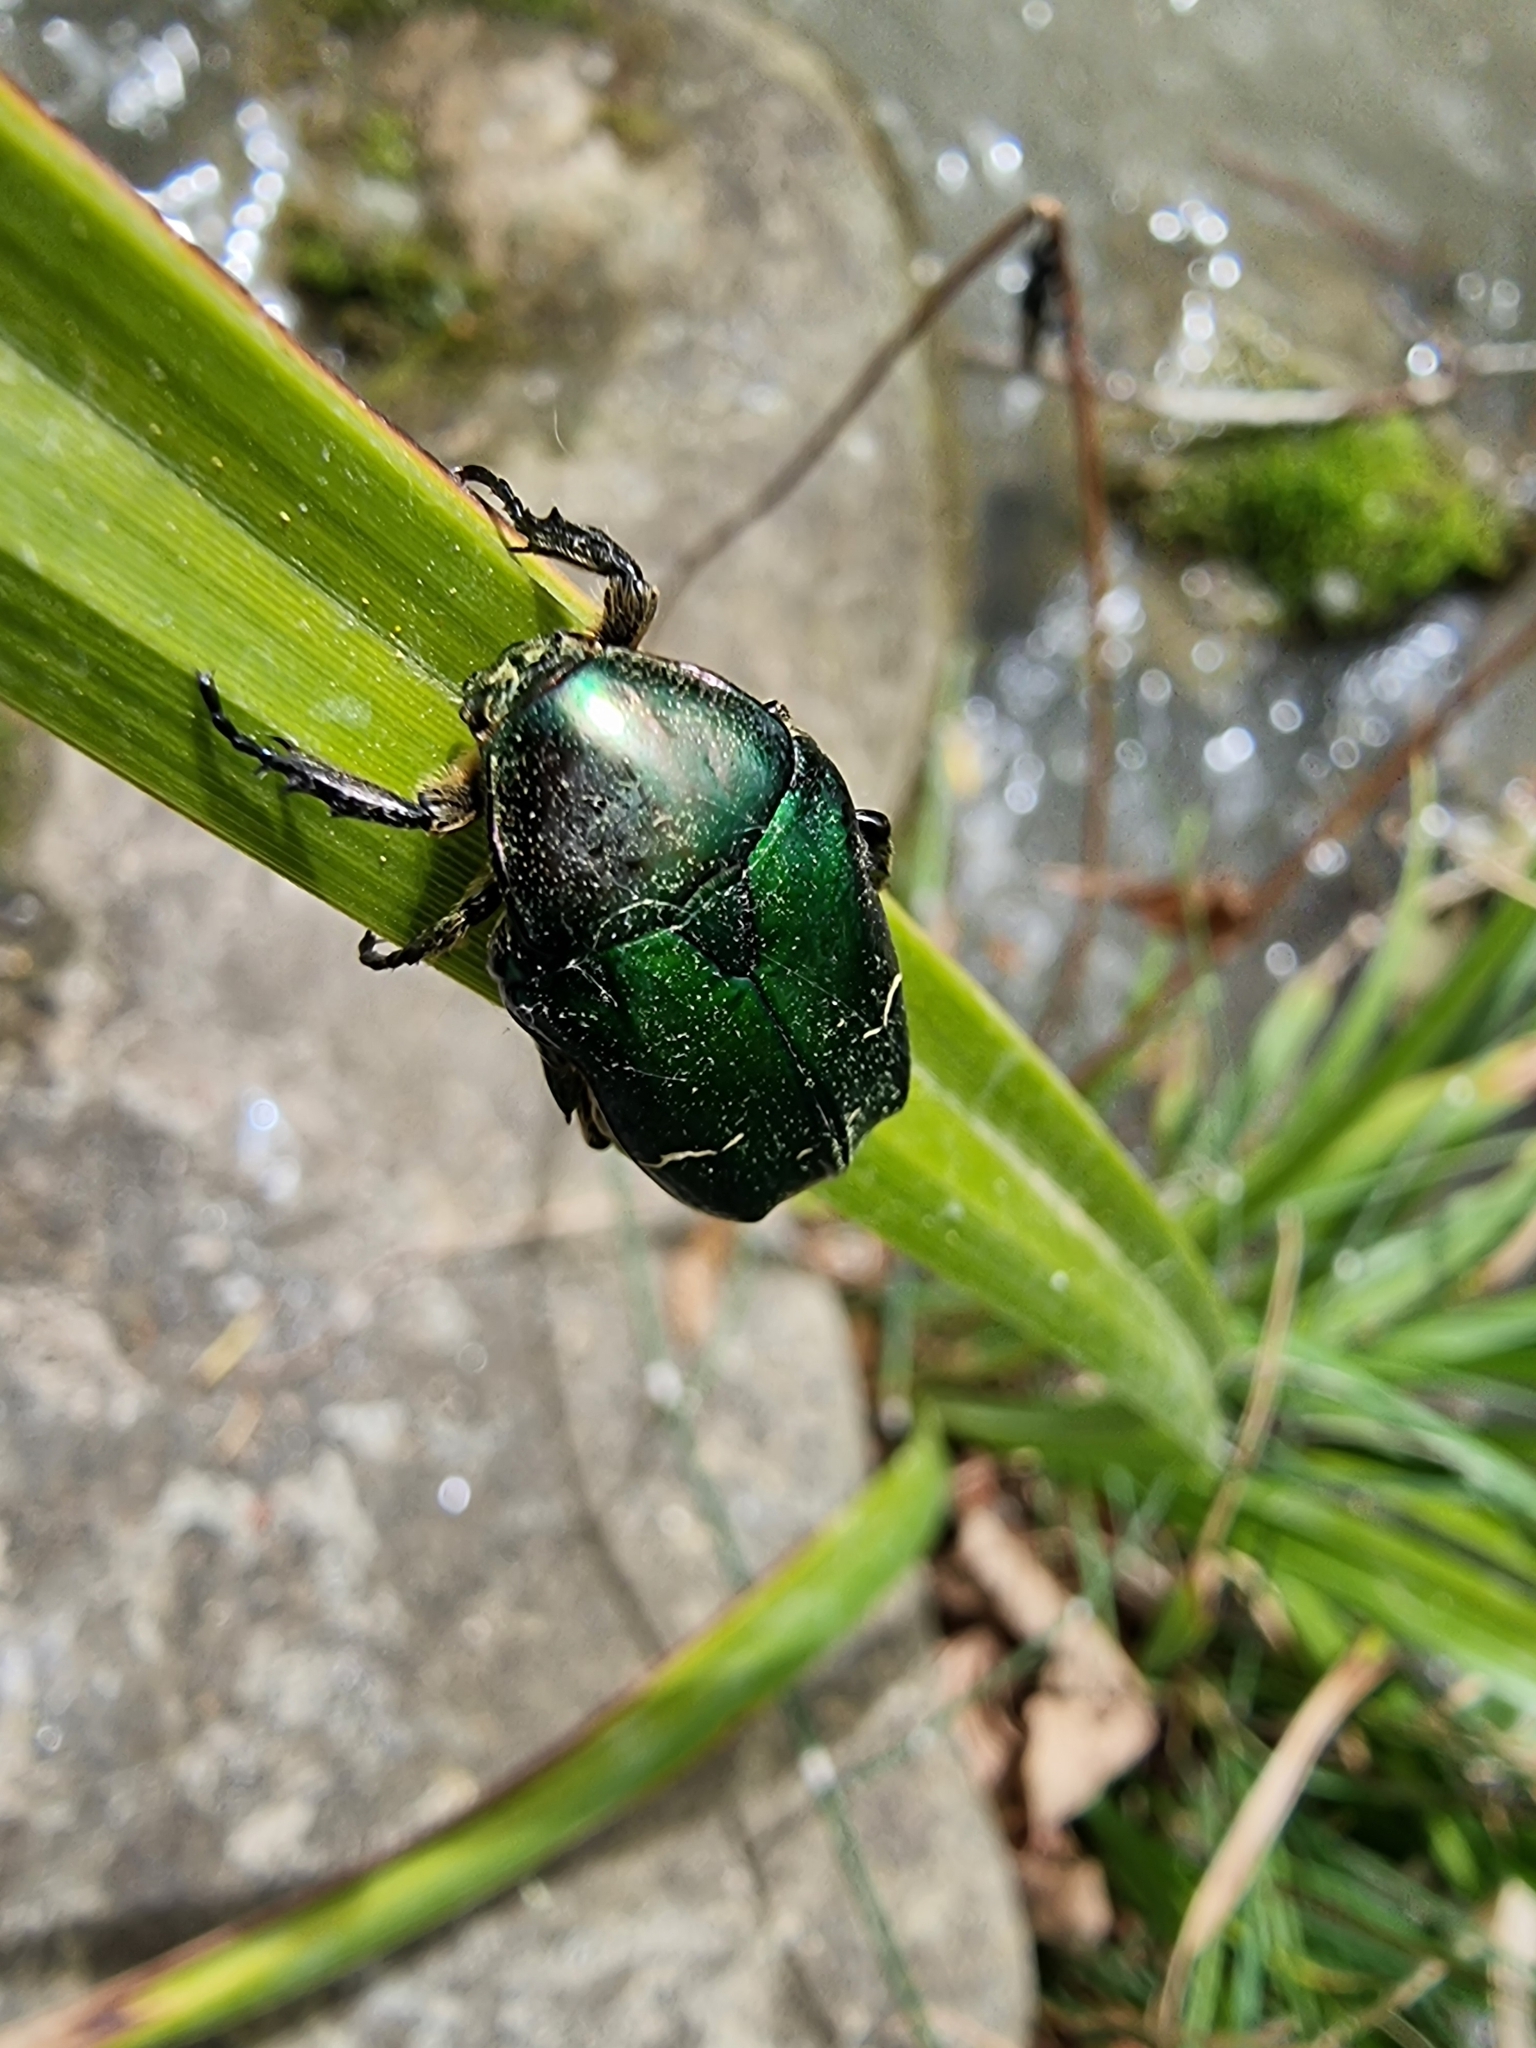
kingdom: Animalia
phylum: Arthropoda
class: Insecta
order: Coleoptera
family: Scarabaeidae
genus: Cetonia
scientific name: Cetonia aurata
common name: Rose chafer
